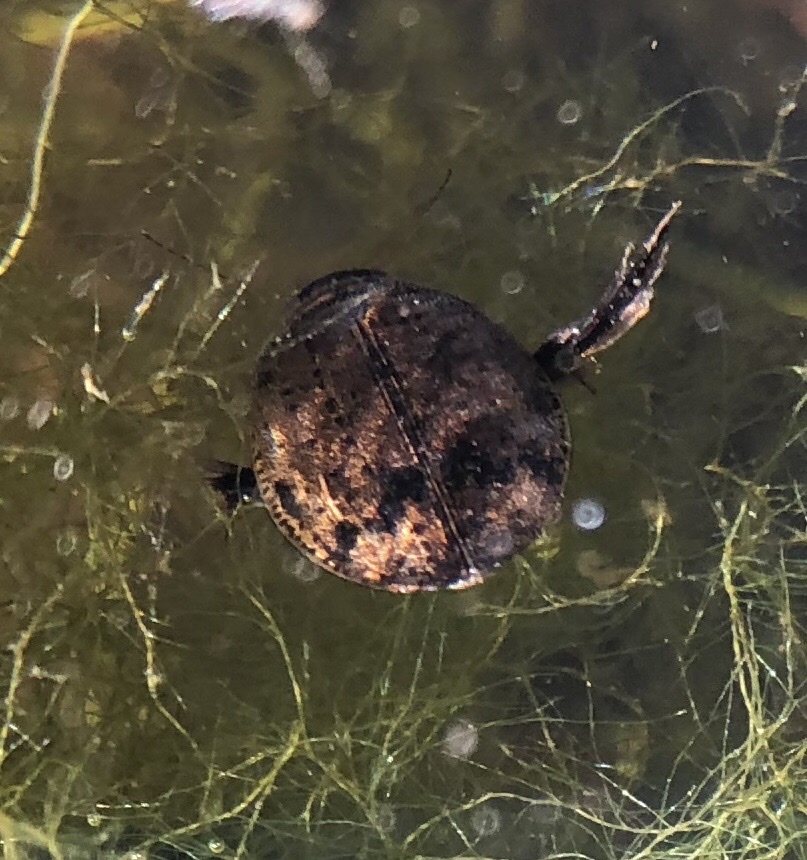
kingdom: Animalia
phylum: Arthropoda
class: Insecta
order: Coleoptera
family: Dytiscidae
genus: Acilius
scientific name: Acilius sulcatus
